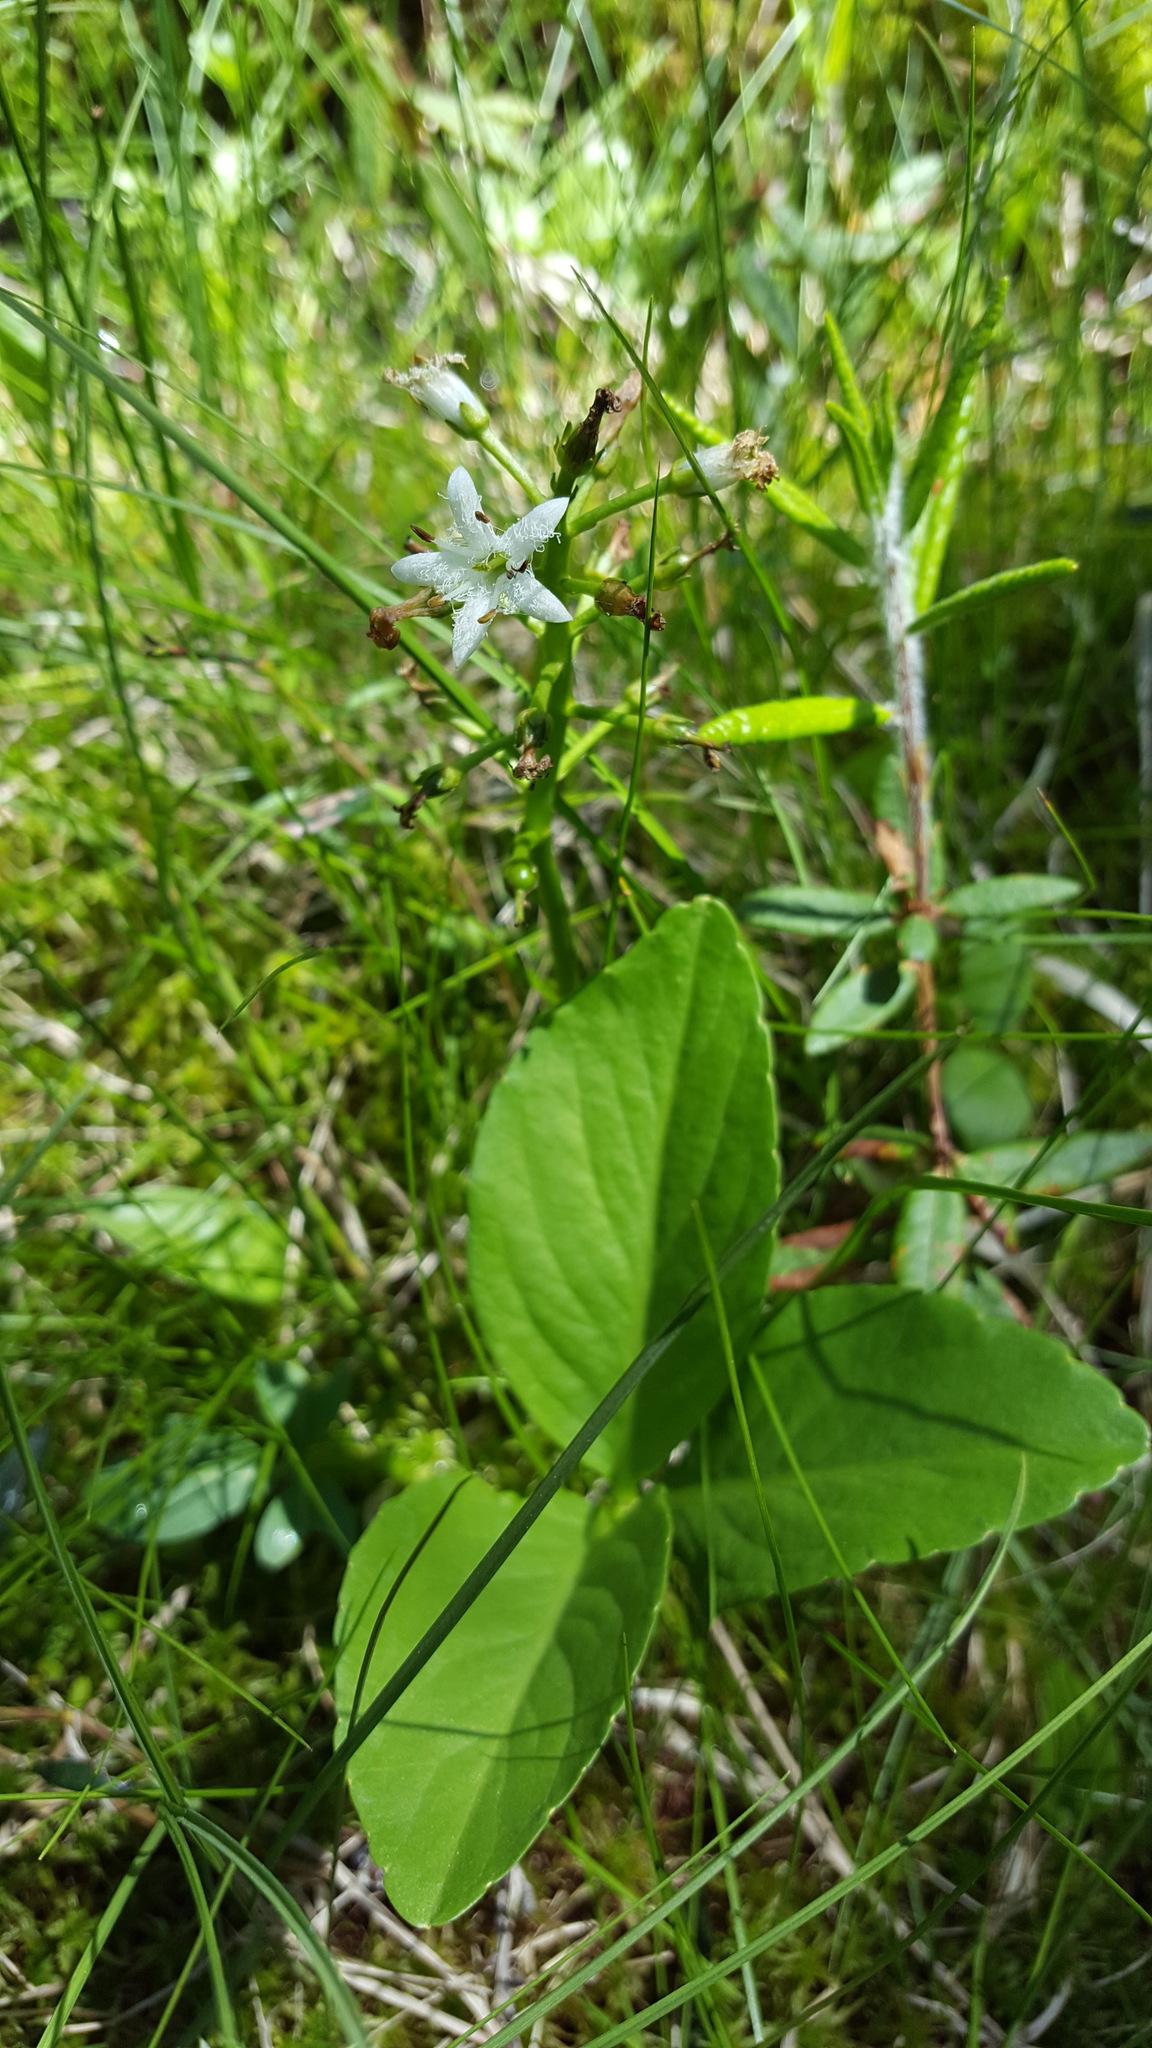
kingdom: Plantae
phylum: Tracheophyta
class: Magnoliopsida
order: Asterales
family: Menyanthaceae
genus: Menyanthes
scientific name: Menyanthes trifoliata
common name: Bogbean
